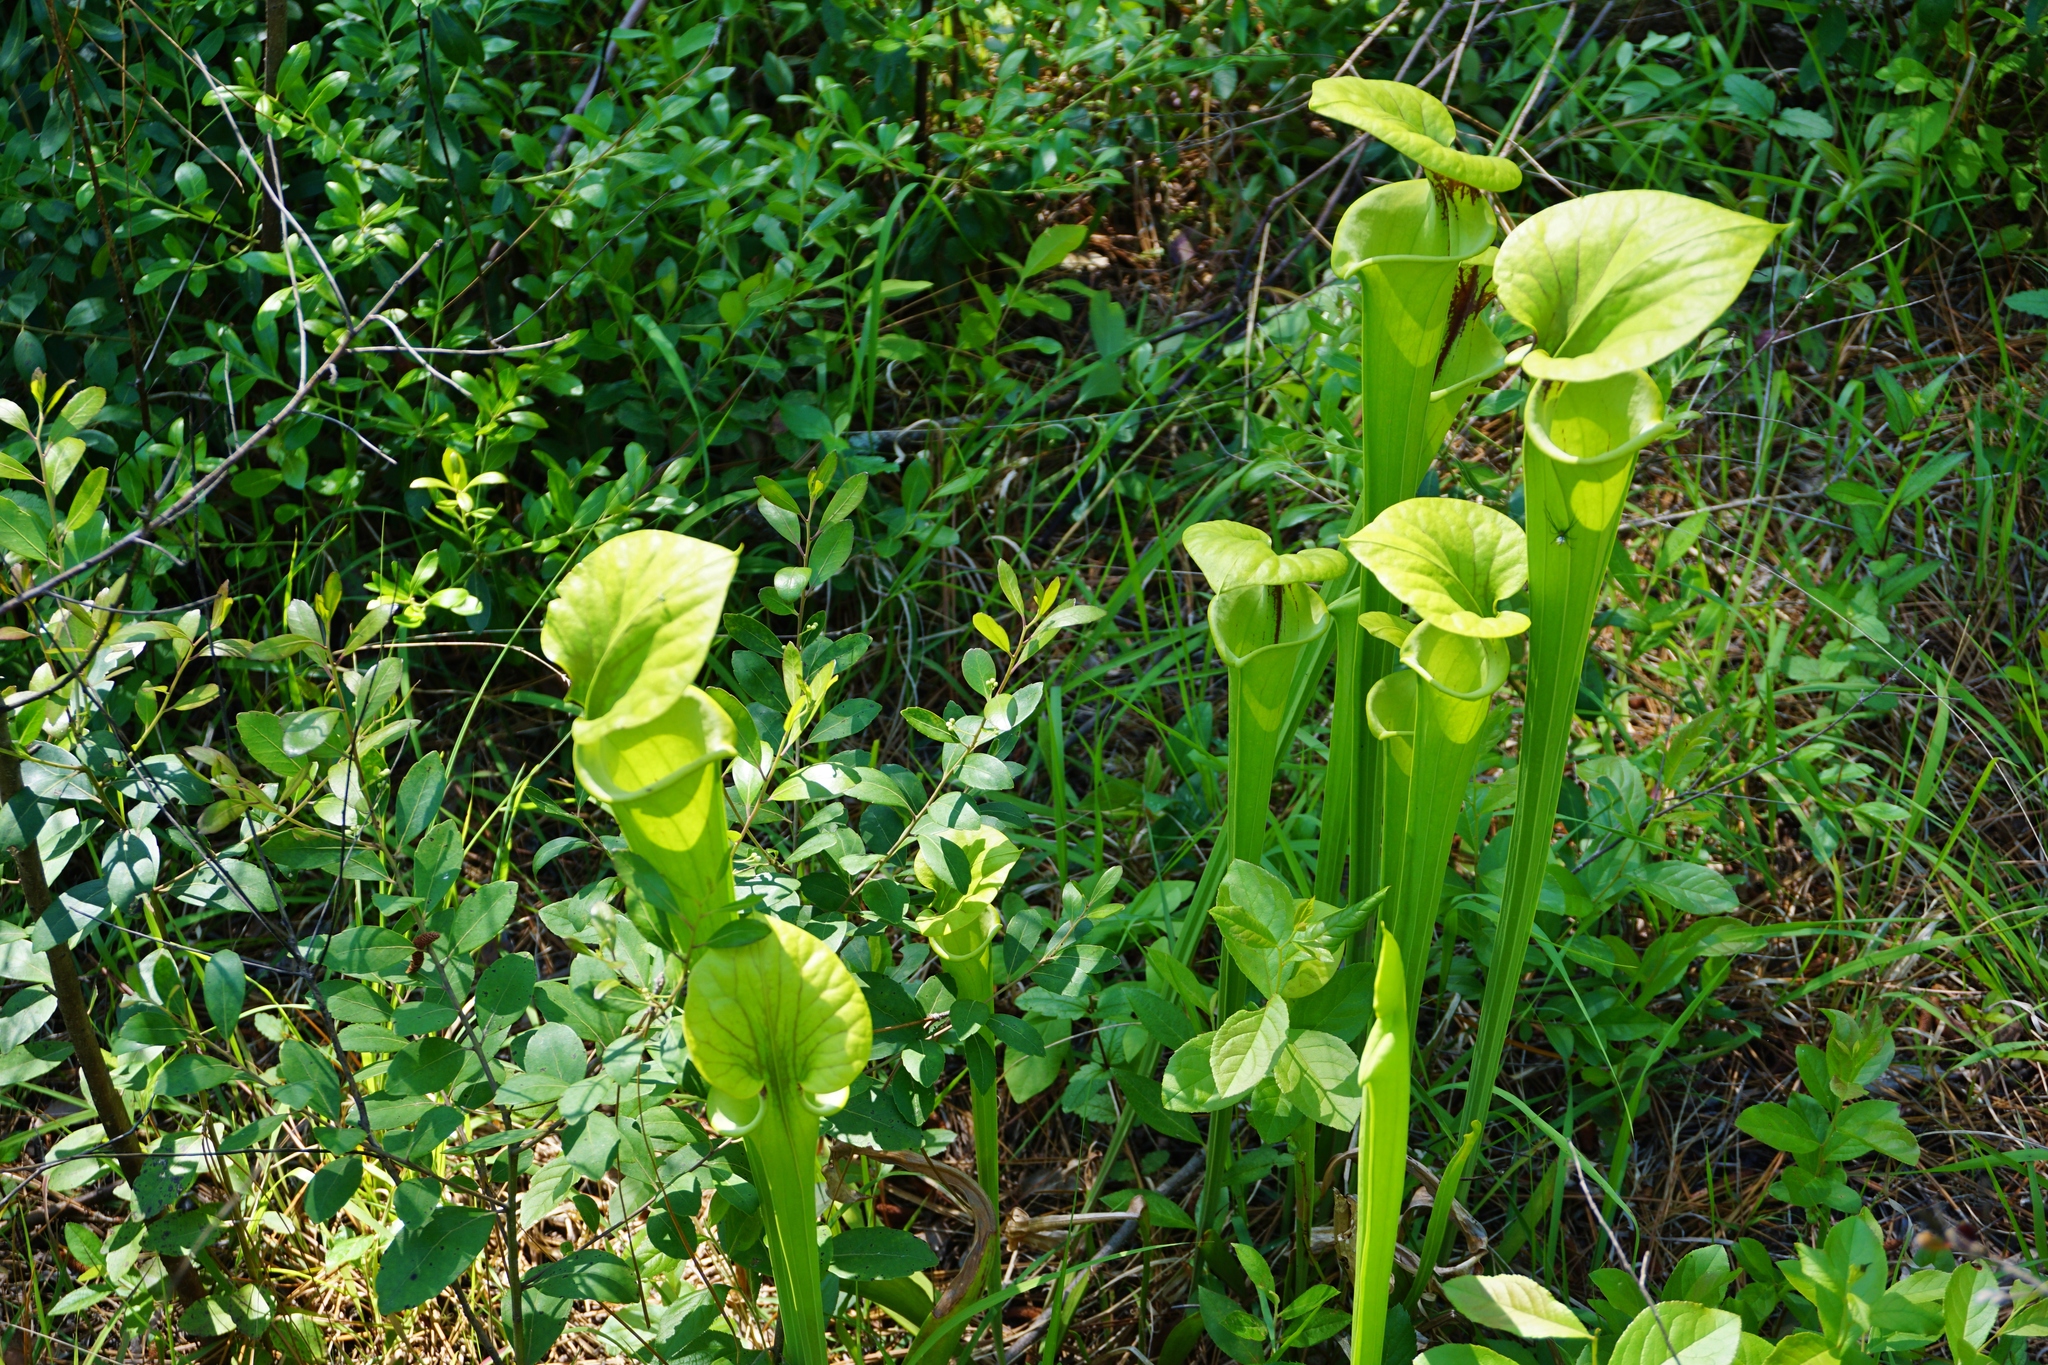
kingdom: Plantae
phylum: Tracheophyta
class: Magnoliopsida
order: Ericales
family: Sarraceniaceae
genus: Sarracenia
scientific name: Sarracenia flava
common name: Trumpets
